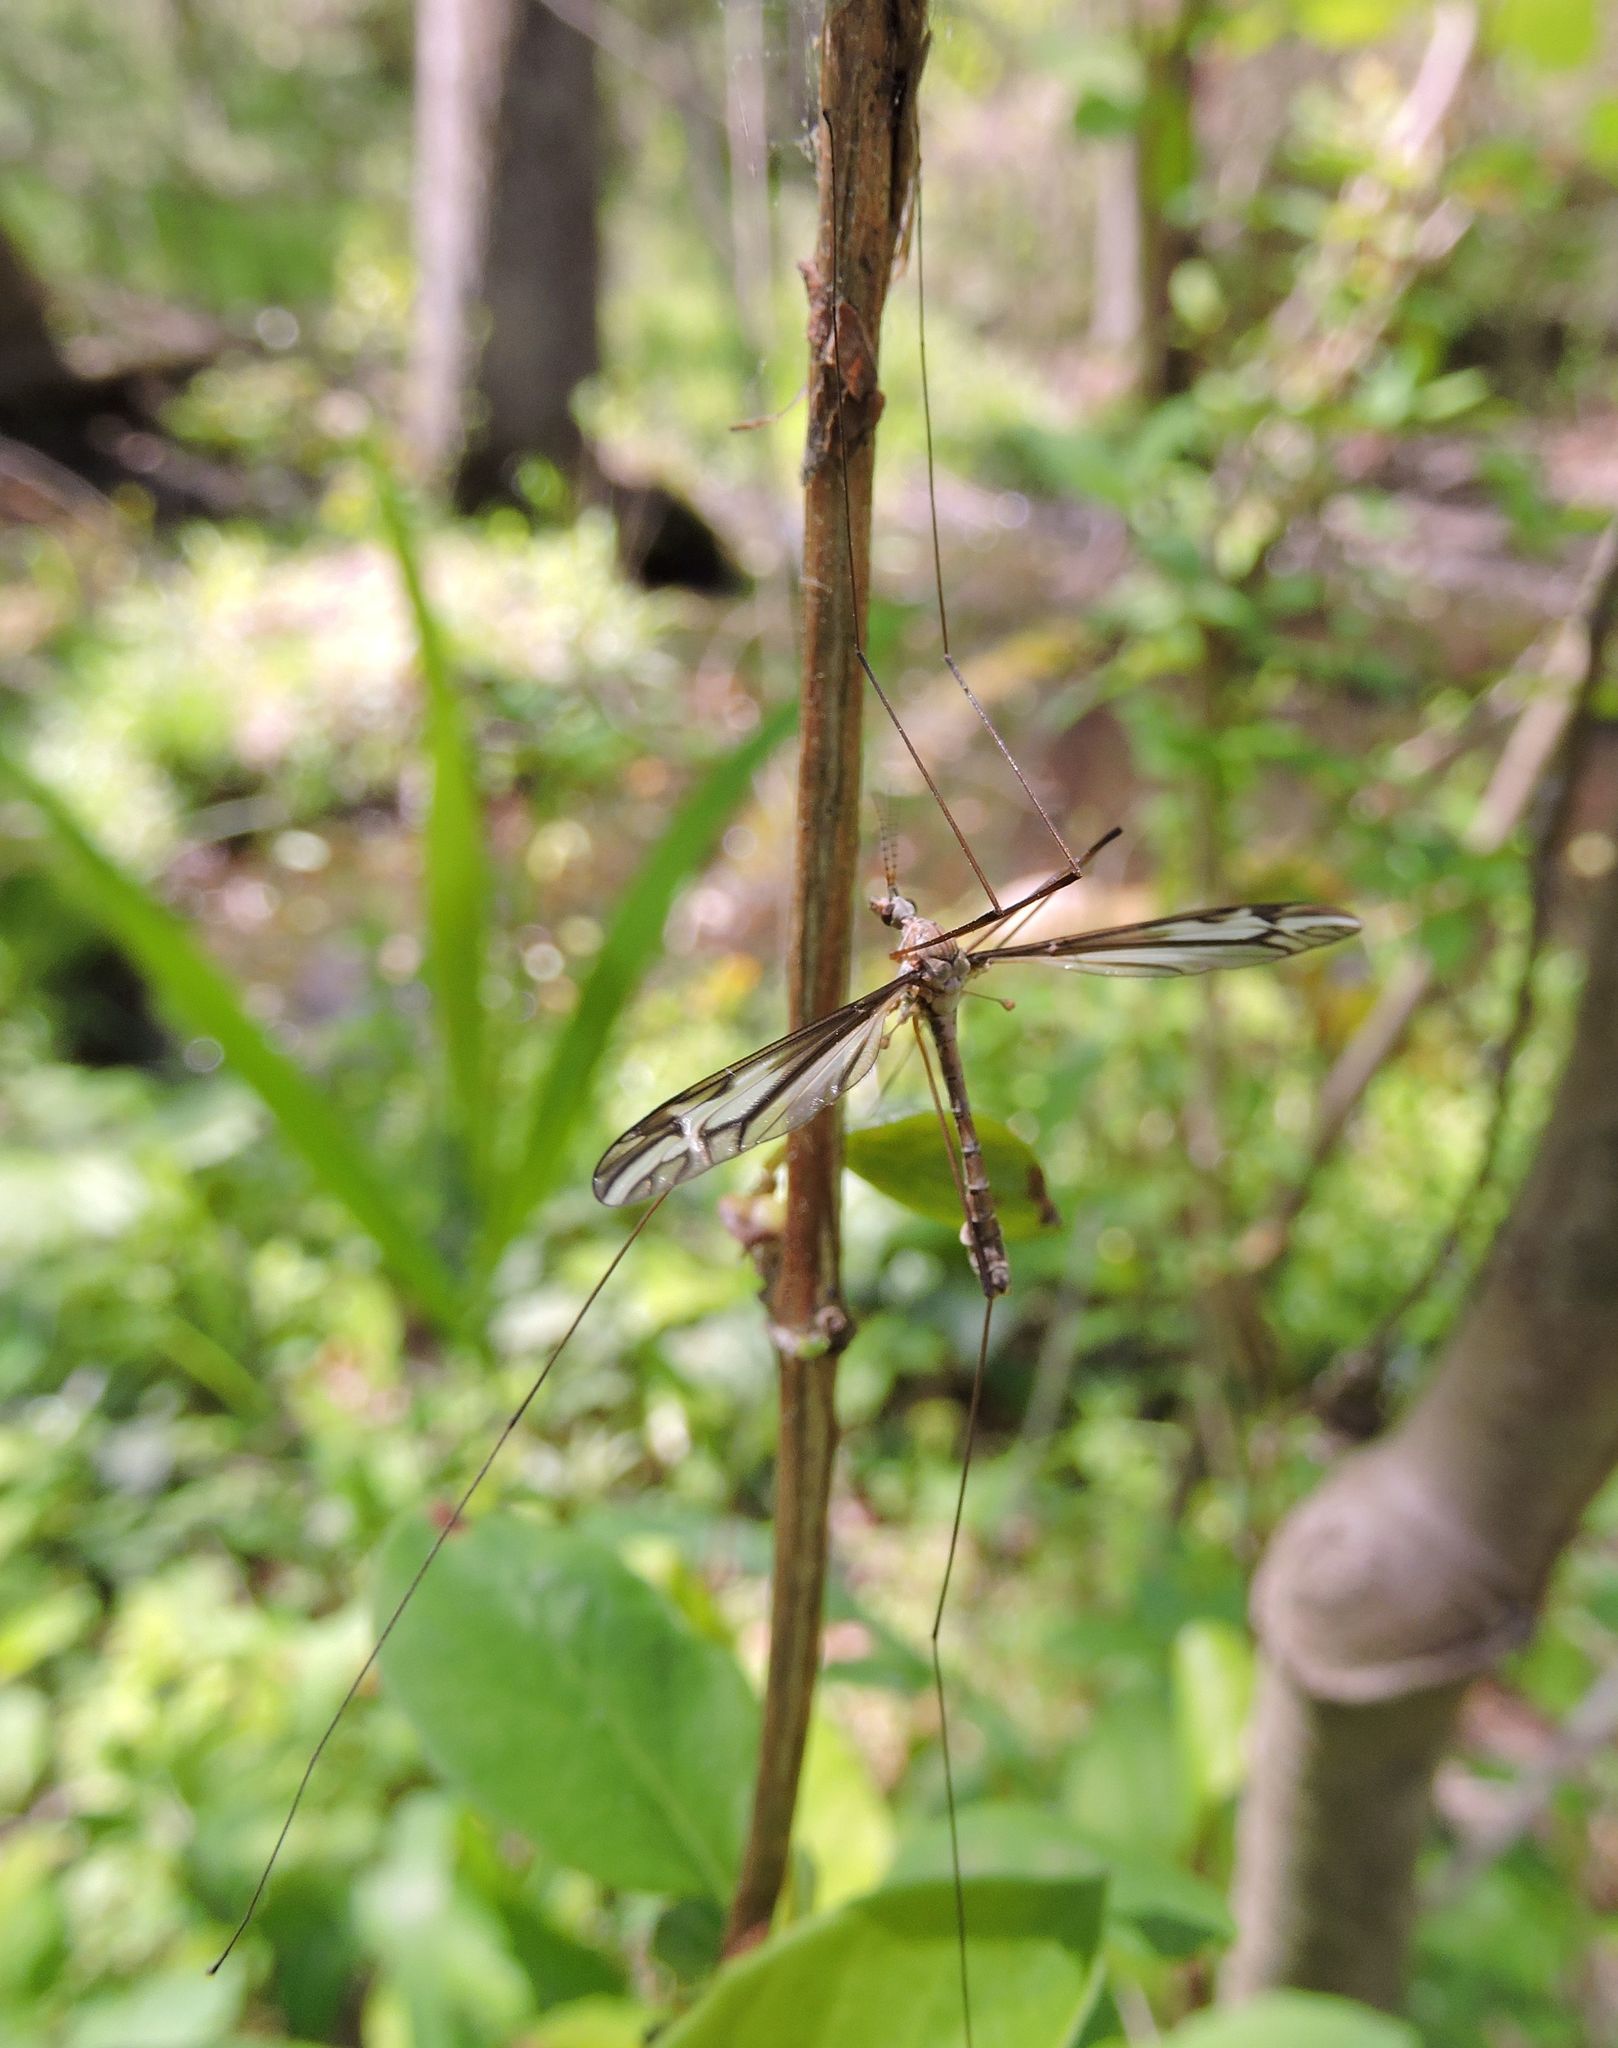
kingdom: Animalia
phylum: Arthropoda
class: Insecta
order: Diptera
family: Tipulidae
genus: Tipula
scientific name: Tipula furca
